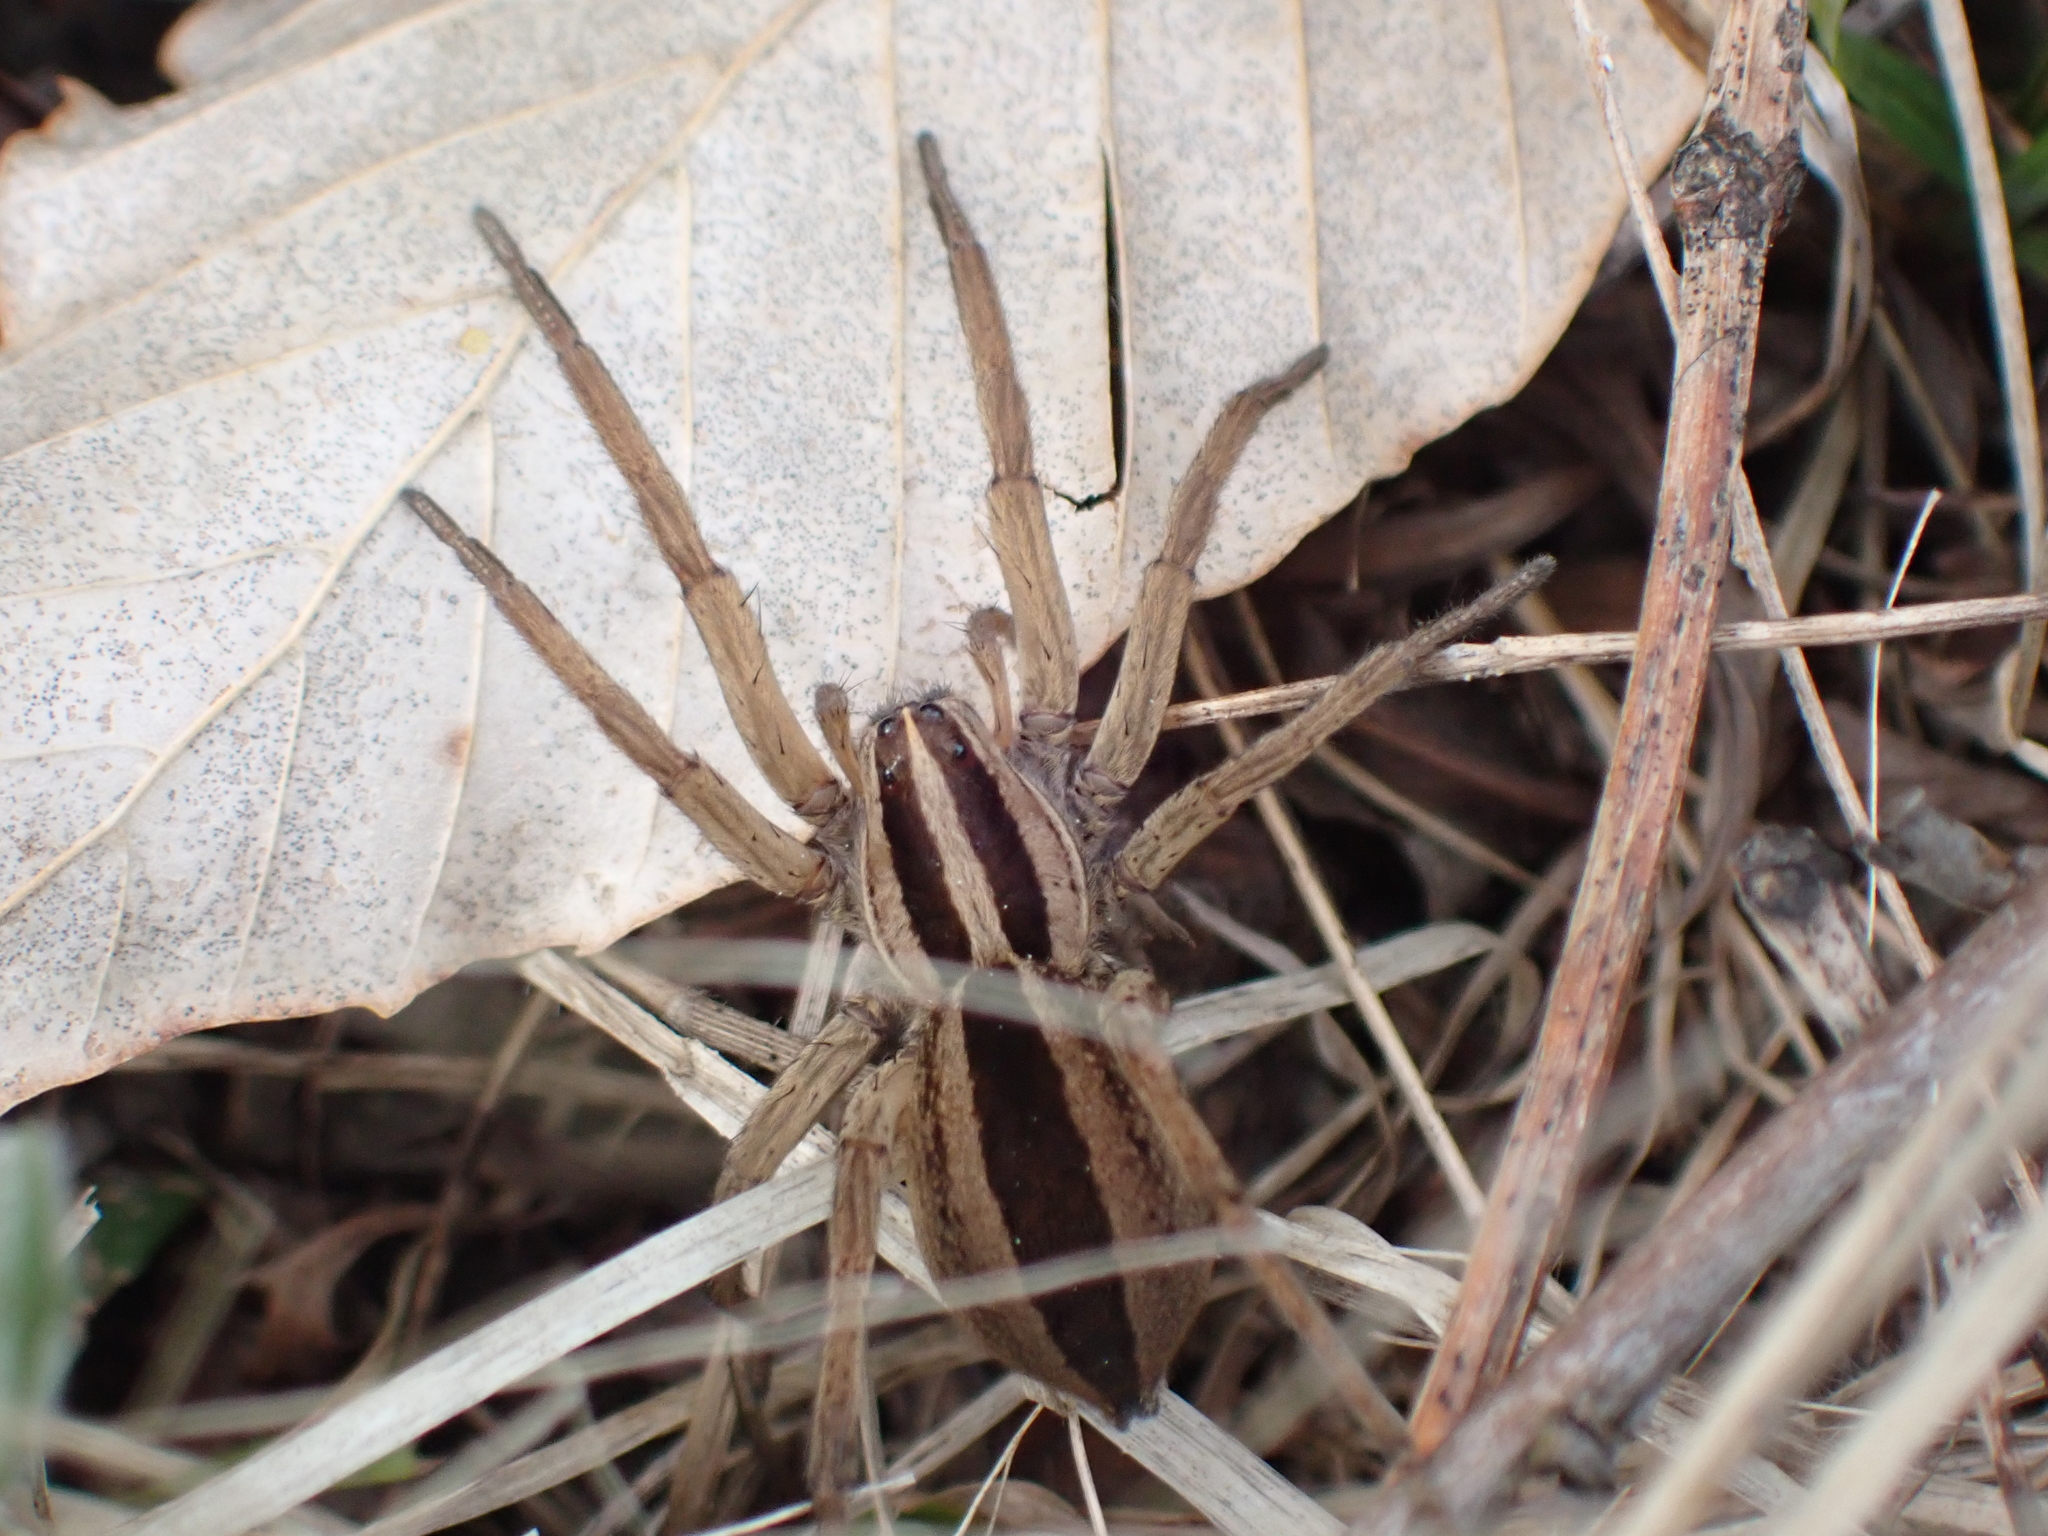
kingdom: Animalia
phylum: Arthropoda
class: Arachnida
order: Araneae
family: Lycosidae
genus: Rabidosa
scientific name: Rabidosa punctulata
